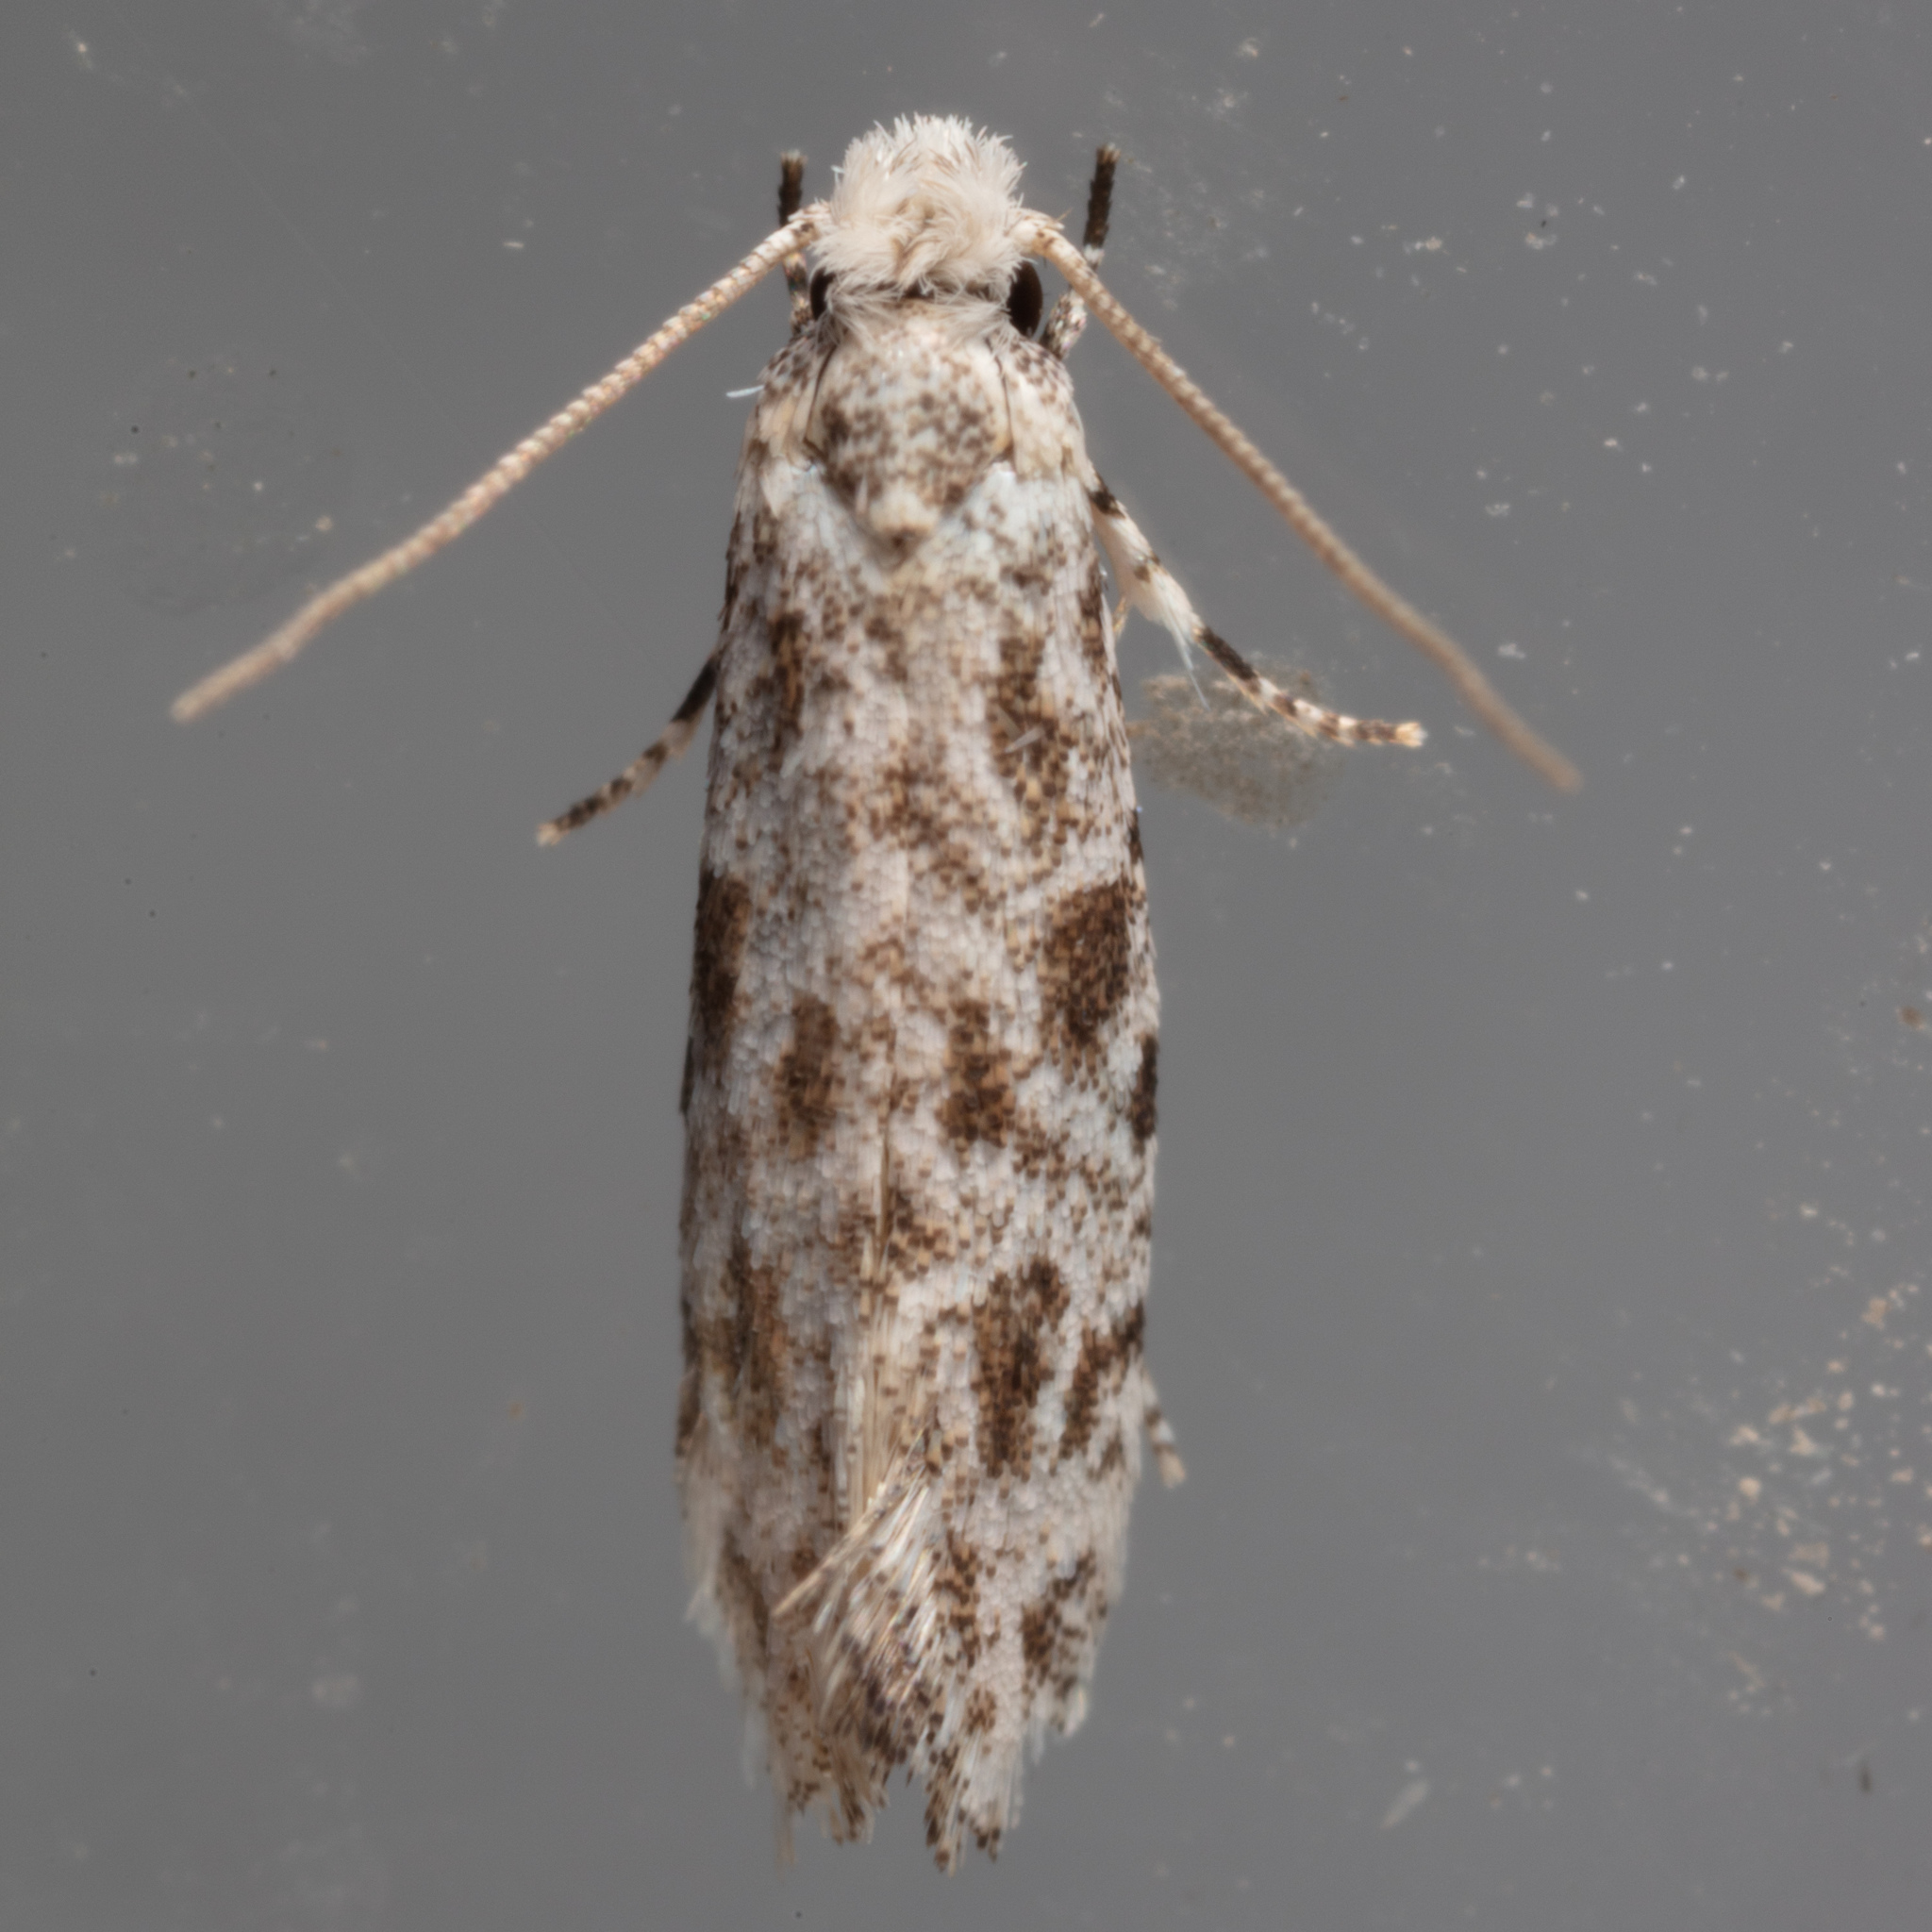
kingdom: Animalia
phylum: Arthropoda
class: Insecta
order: Lepidoptera
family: Meessiidae
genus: Diachorisia
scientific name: Diachorisia velatella
